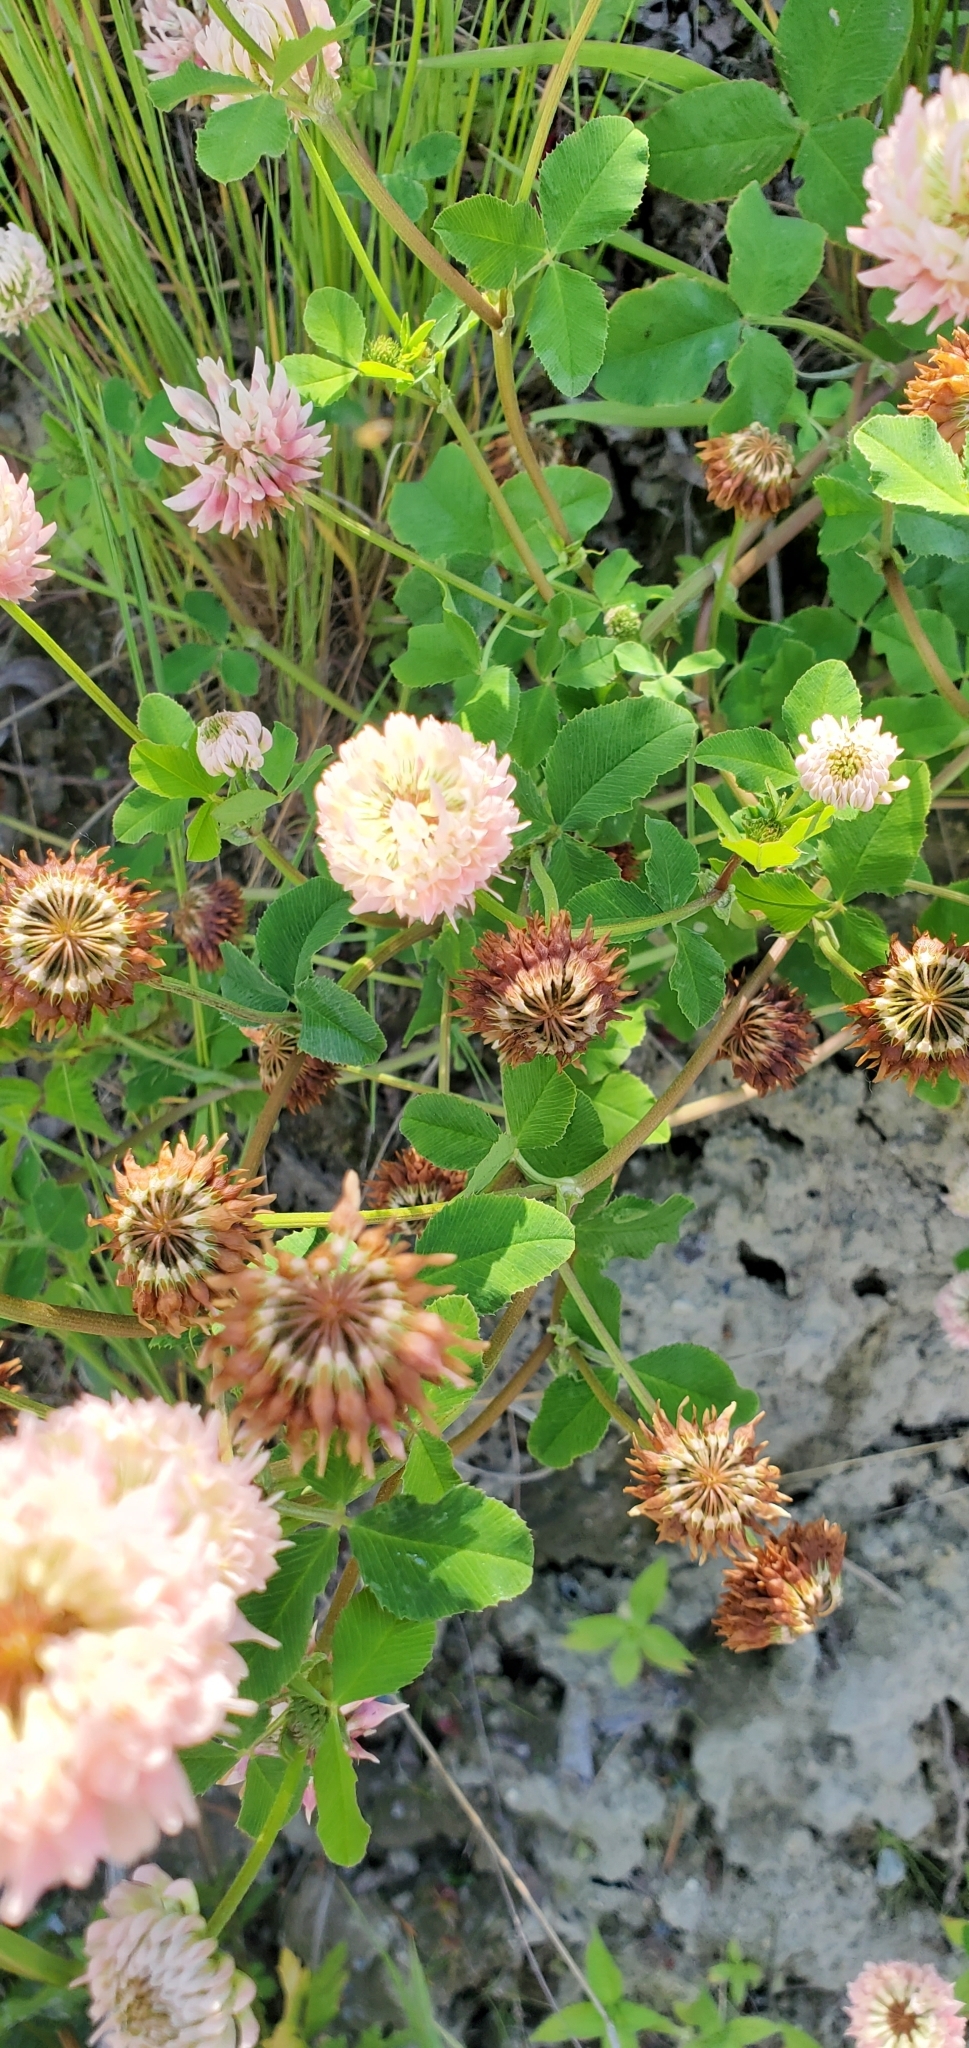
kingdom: Plantae
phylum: Tracheophyta
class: Magnoliopsida
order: Fabales
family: Fabaceae
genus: Trifolium
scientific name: Trifolium hybridum
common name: Alsike clover
